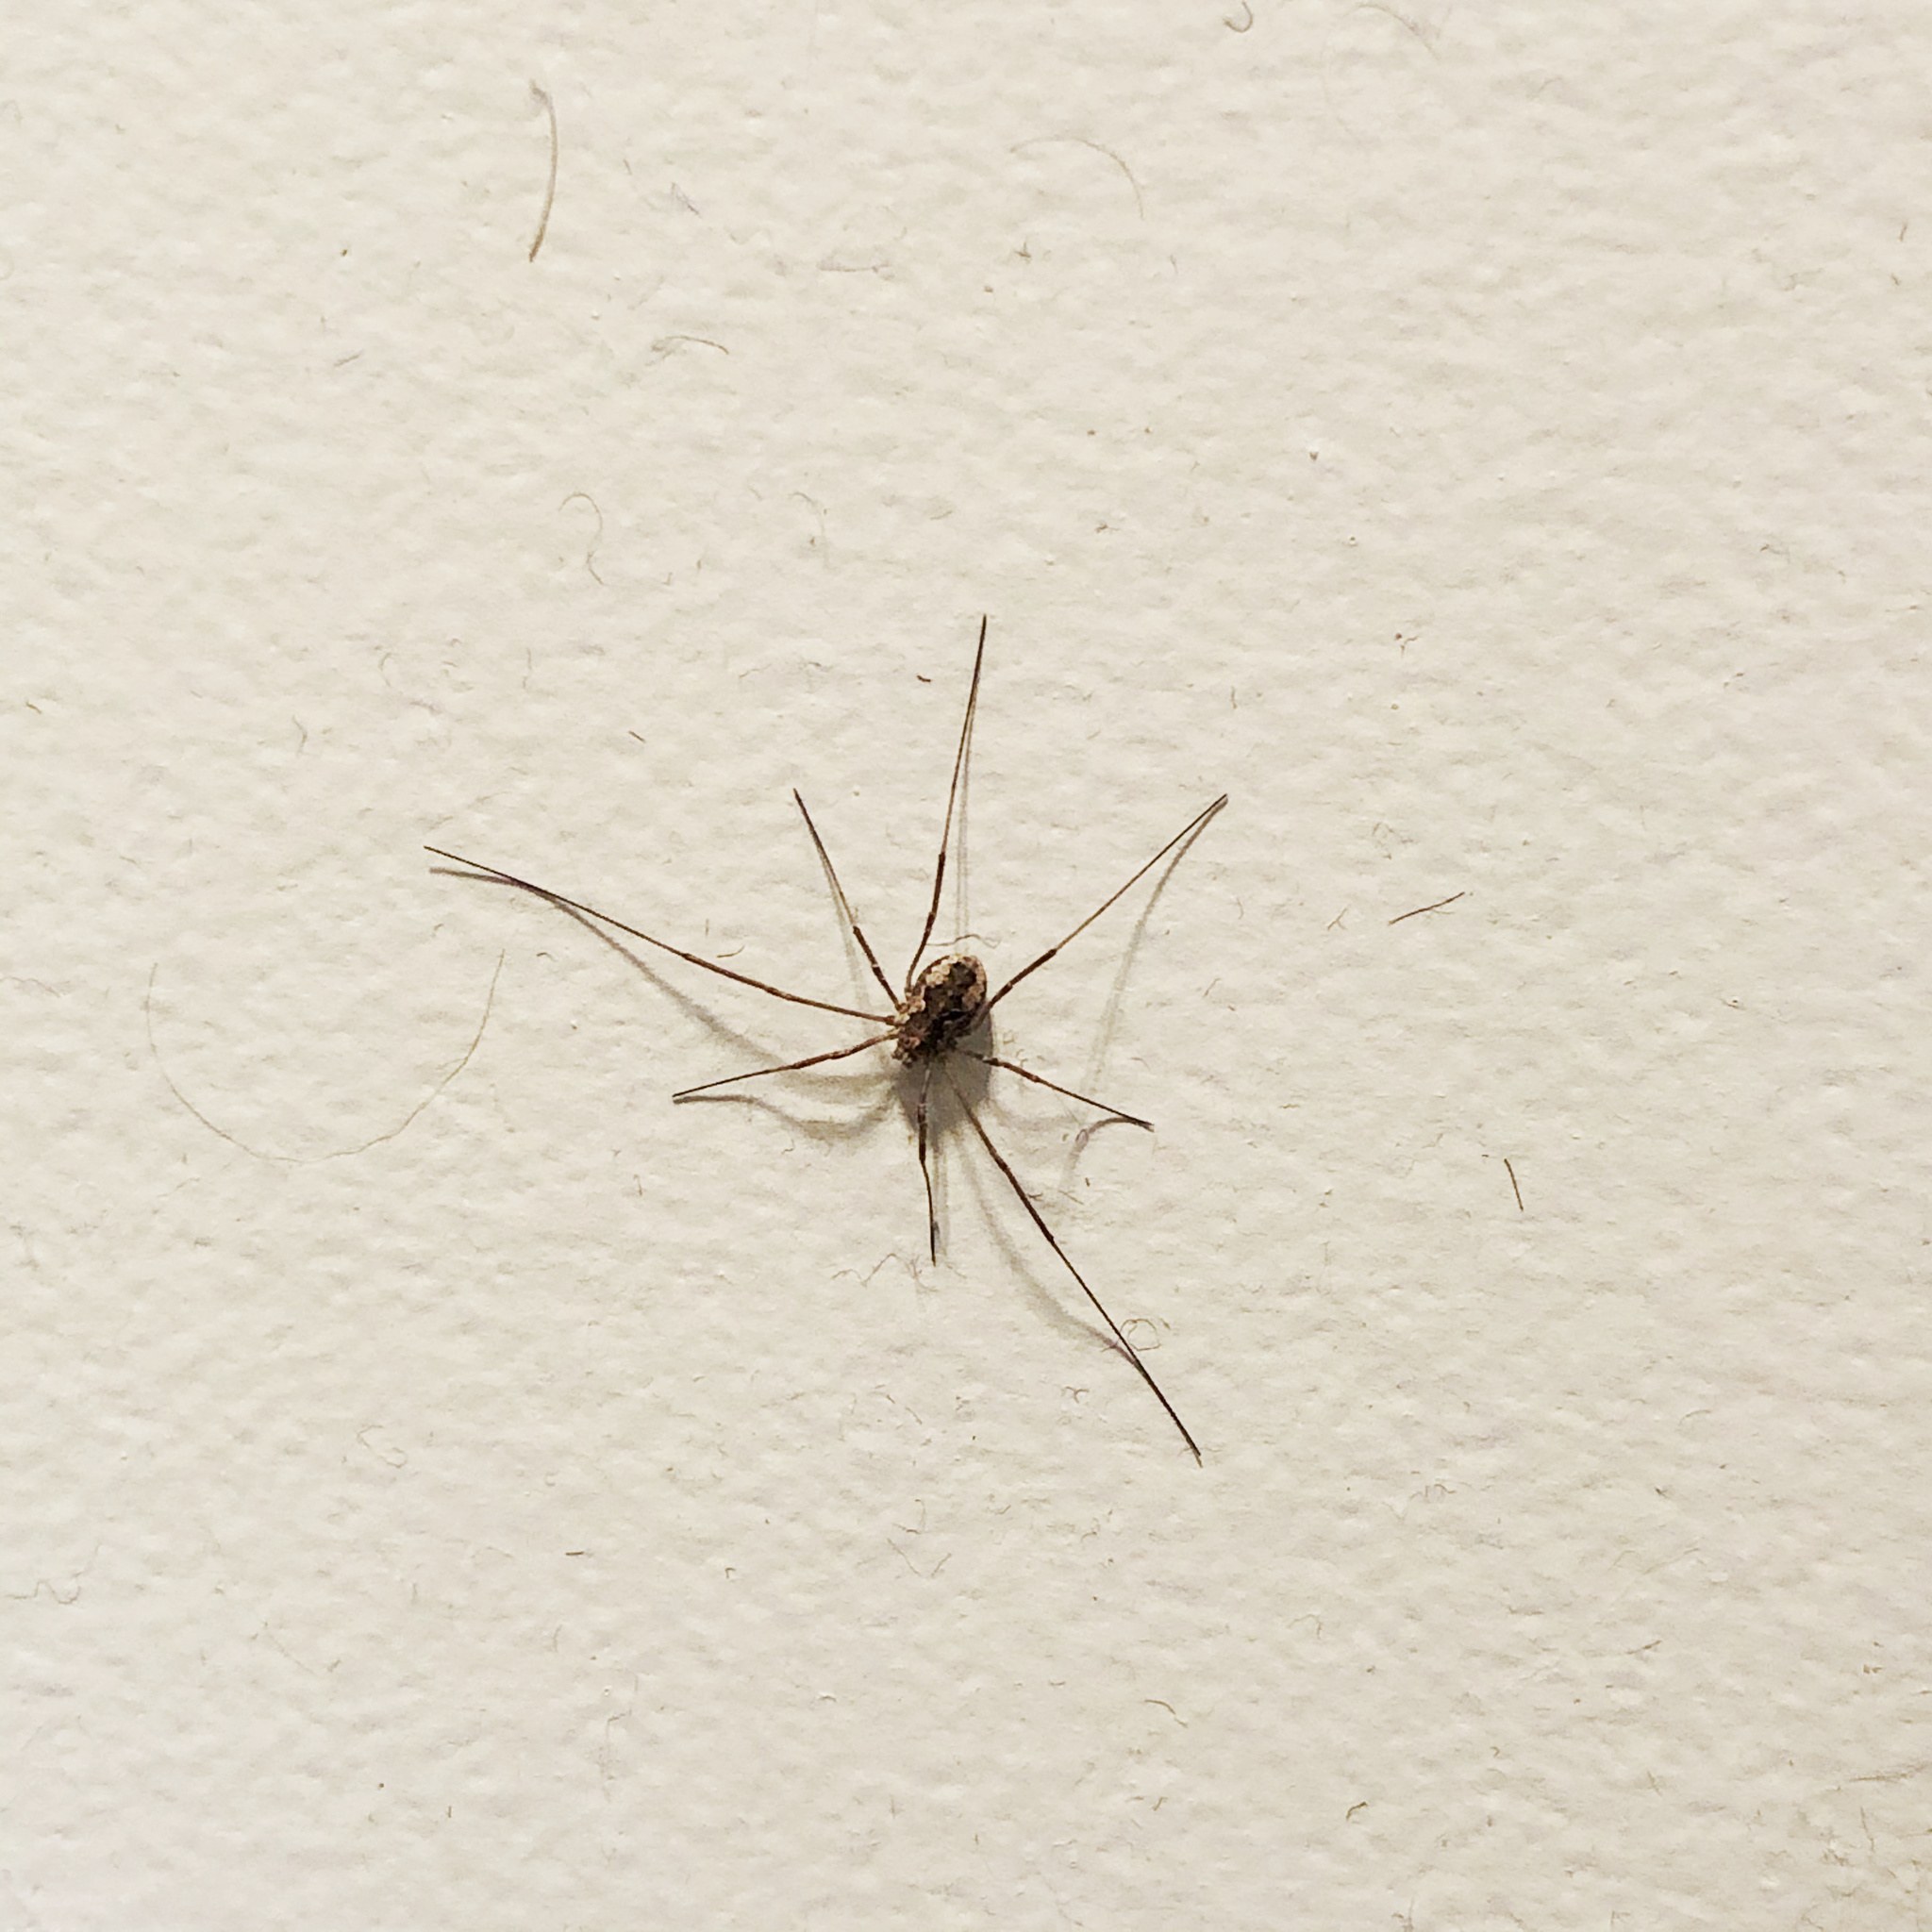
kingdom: Animalia
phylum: Arthropoda
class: Arachnida
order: Opiliones
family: Phalangiidae
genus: Phalangium
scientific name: Phalangium opilio
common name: Daddy longleg
